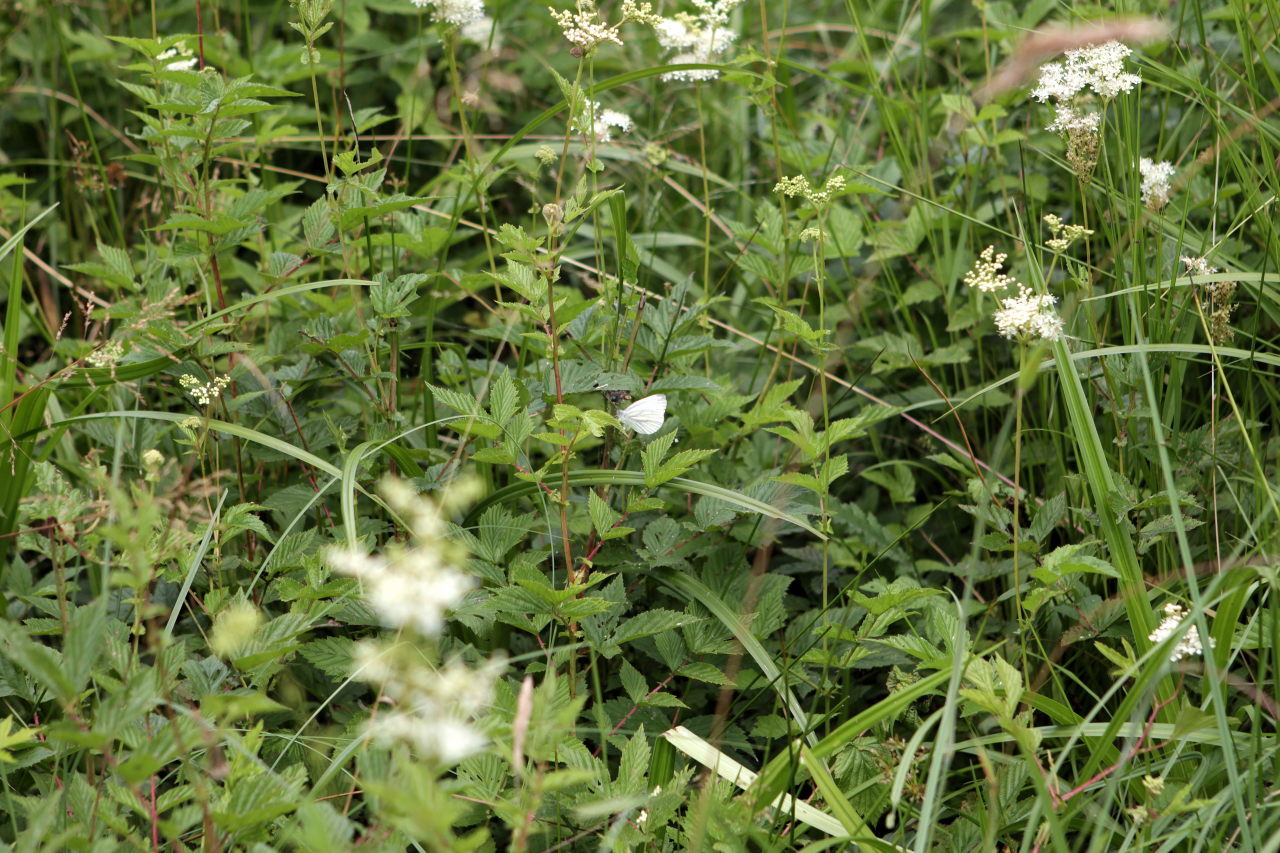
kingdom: Animalia
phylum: Arthropoda
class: Insecta
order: Lepidoptera
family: Pieridae
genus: Pieris
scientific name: Pieris napi
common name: Green-veined white
